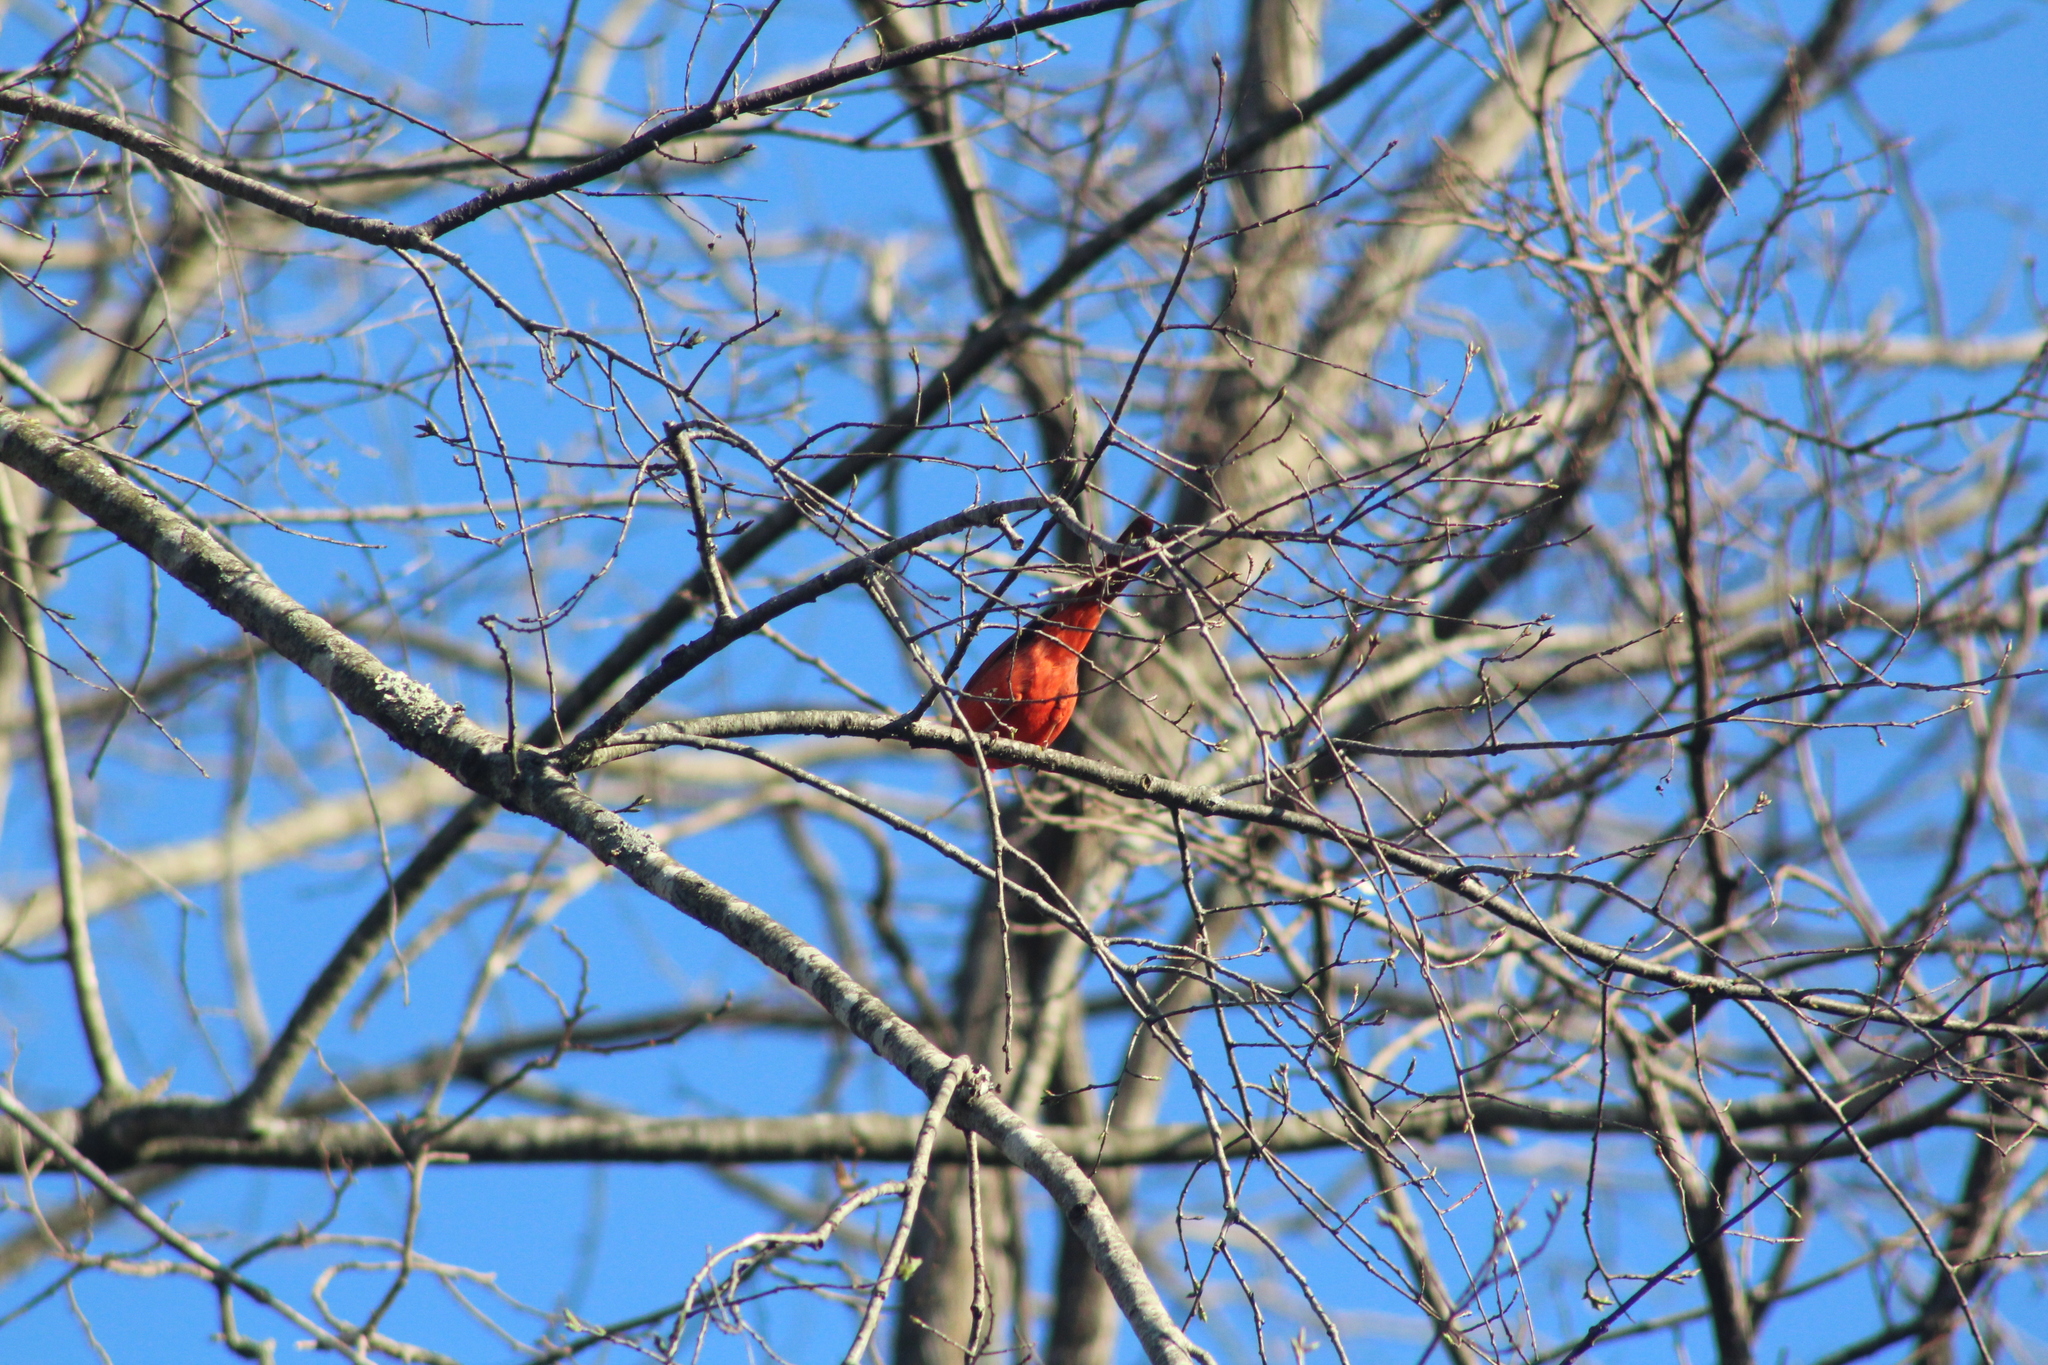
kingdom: Animalia
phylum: Chordata
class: Aves
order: Passeriformes
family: Cardinalidae
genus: Cardinalis
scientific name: Cardinalis cardinalis
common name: Northern cardinal
